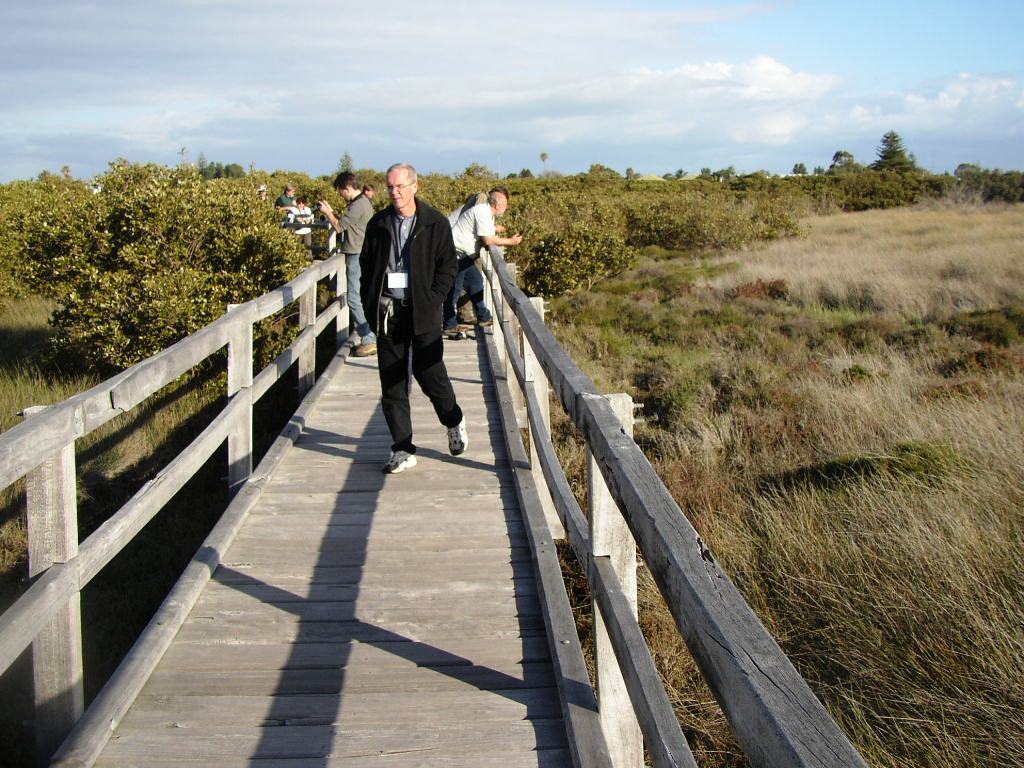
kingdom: Plantae
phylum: Tracheophyta
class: Magnoliopsida
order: Lamiales
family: Acanthaceae
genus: Avicennia
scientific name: Avicennia marina
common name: Gray mangrove
